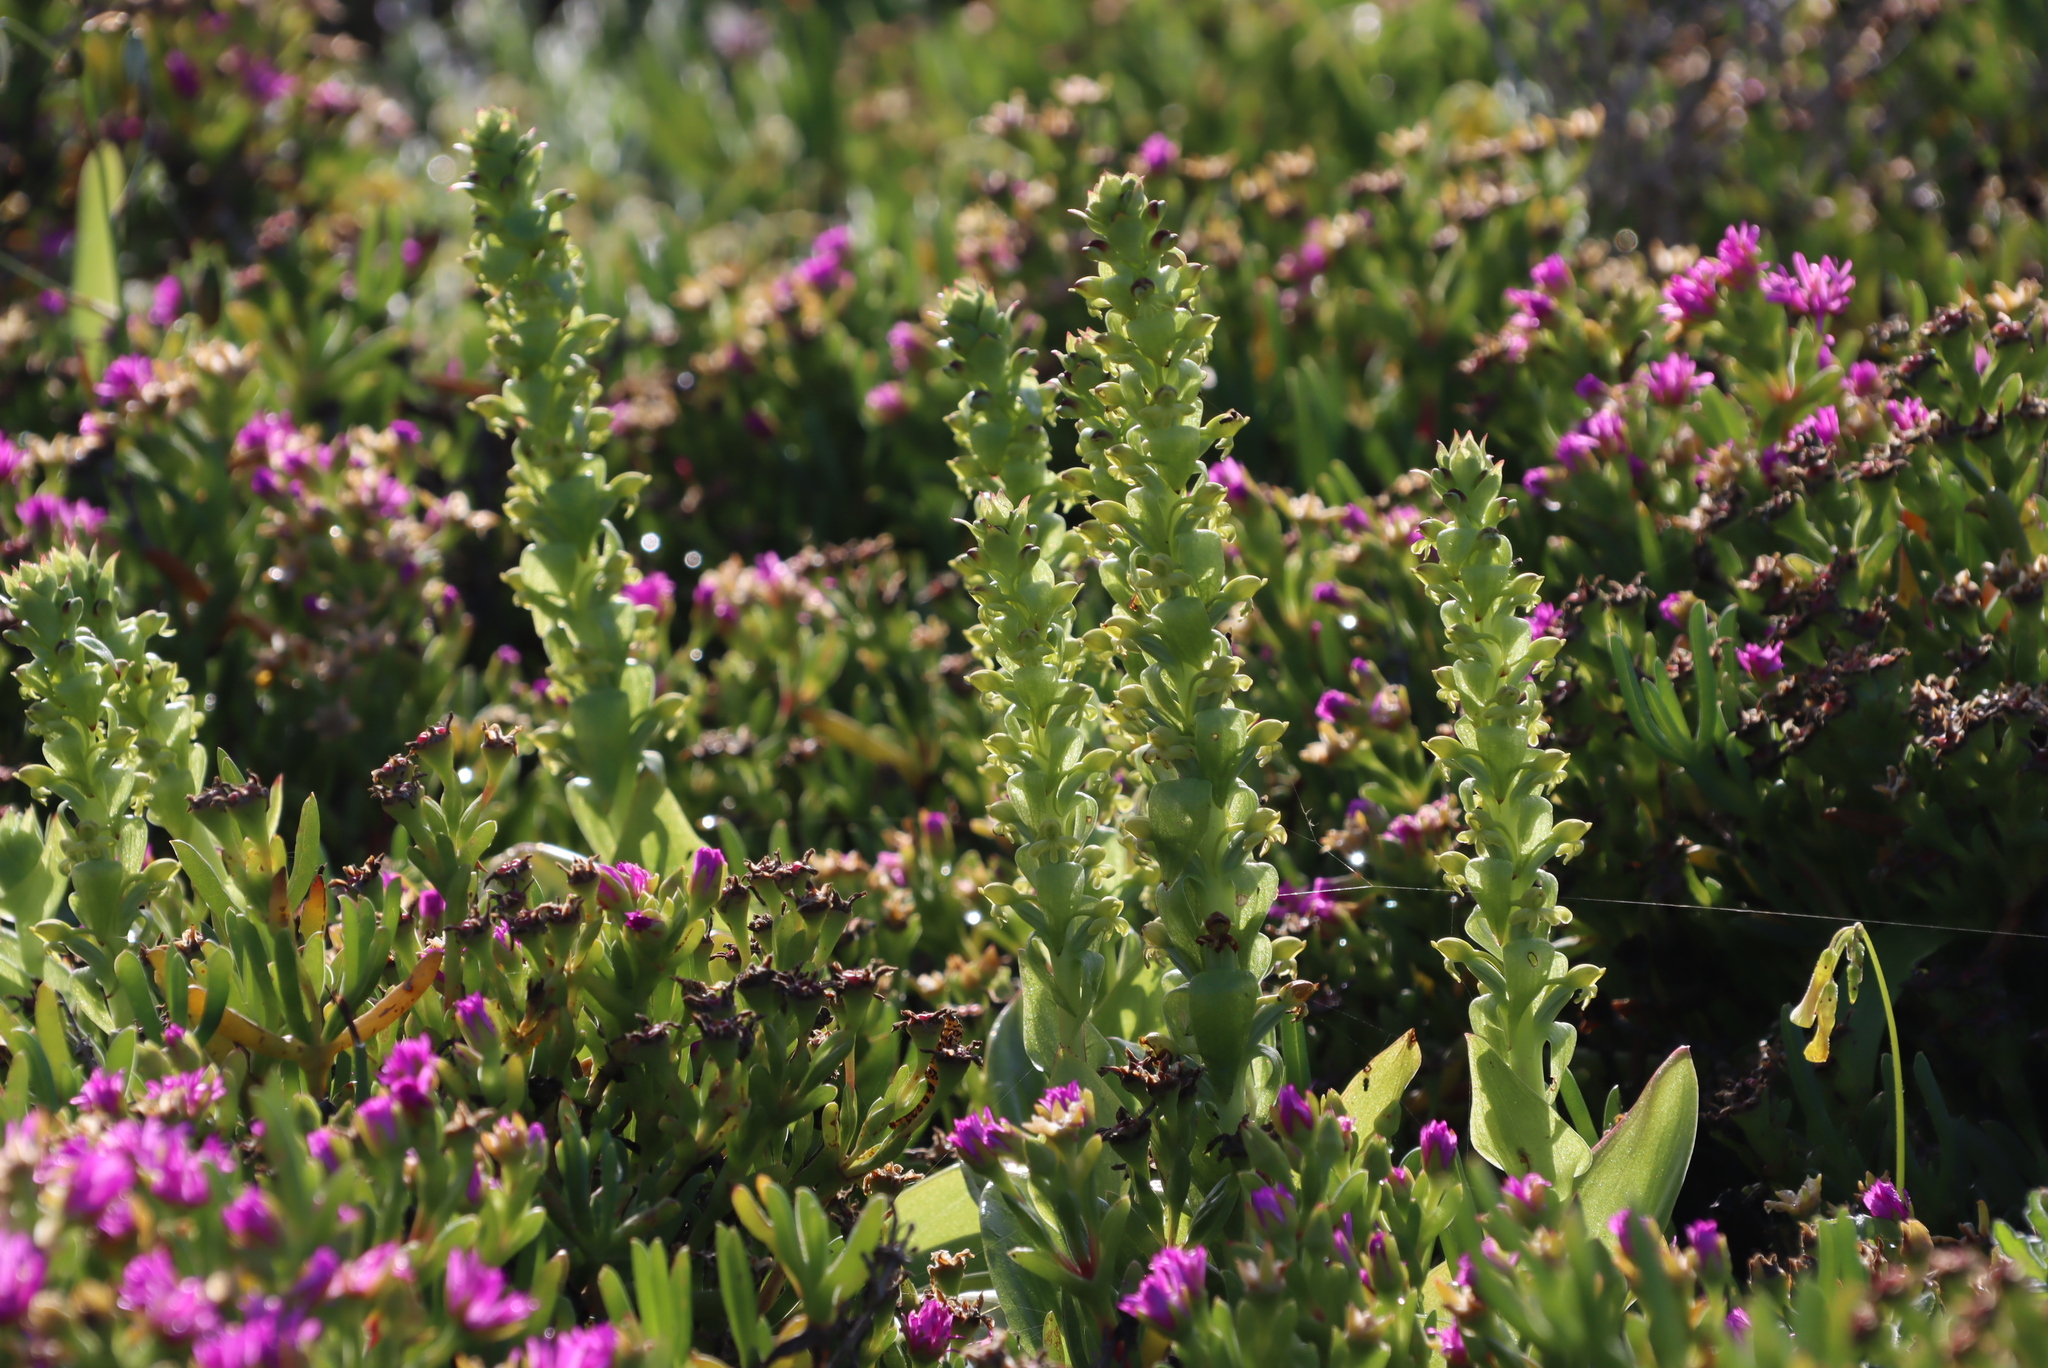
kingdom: Plantae
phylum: Tracheophyta
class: Liliopsida
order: Asparagales
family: Orchidaceae
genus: Satyrium
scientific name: Satyrium odorum
